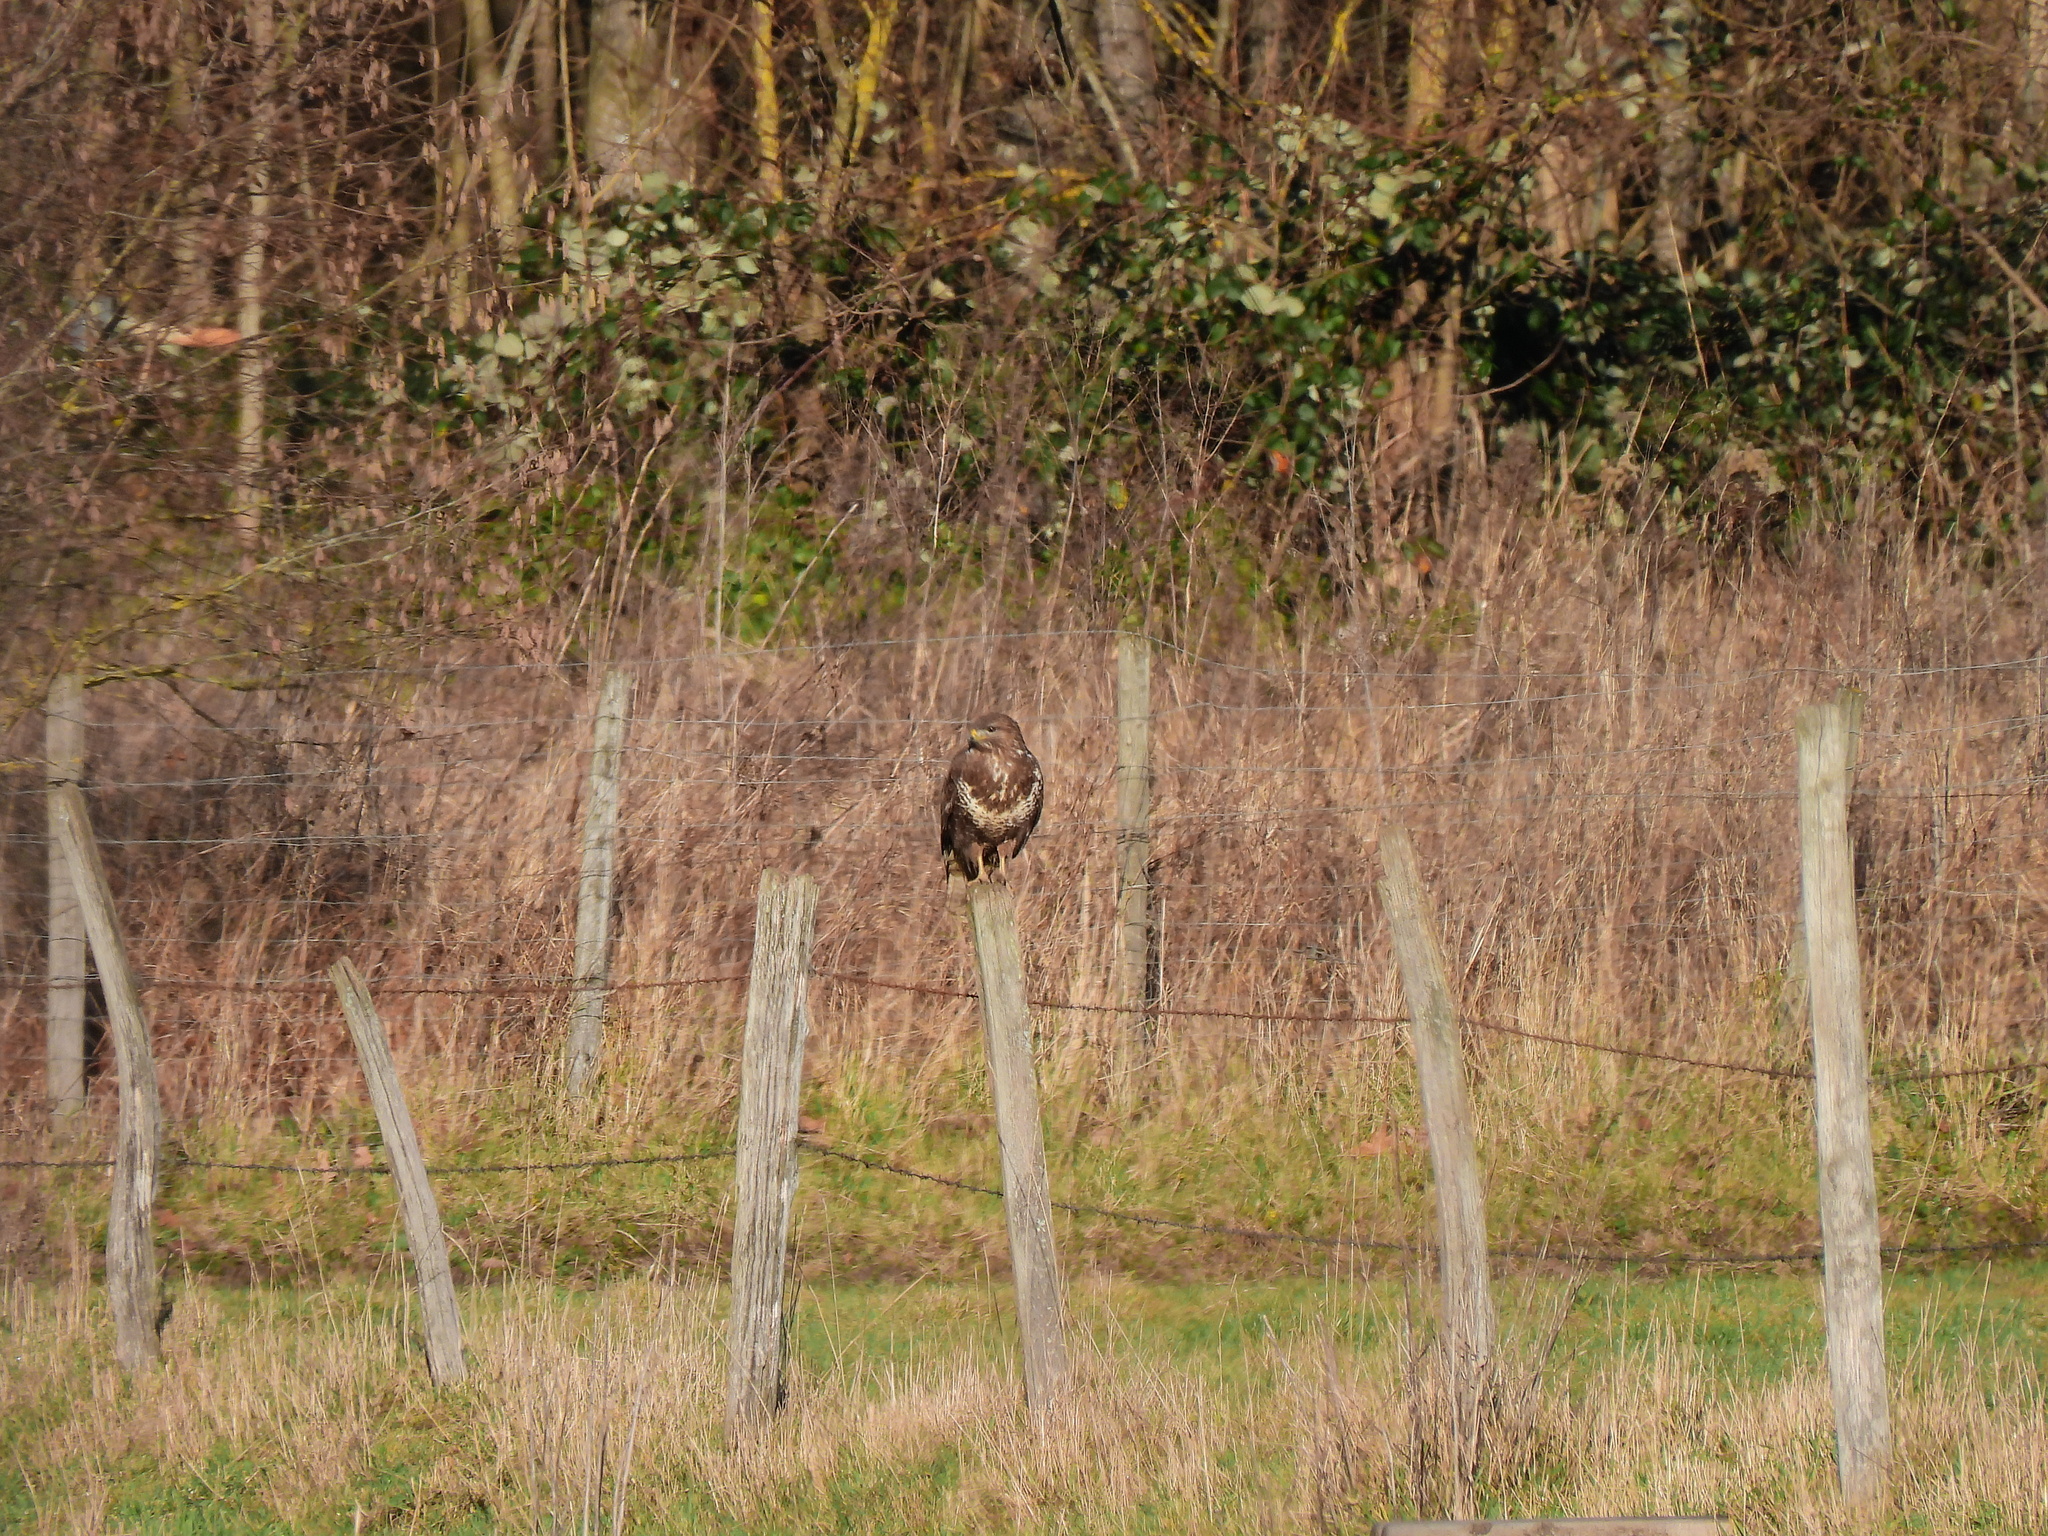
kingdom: Animalia
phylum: Chordata
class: Aves
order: Accipitriformes
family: Accipitridae
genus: Buteo
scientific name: Buteo buteo
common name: Common buzzard
